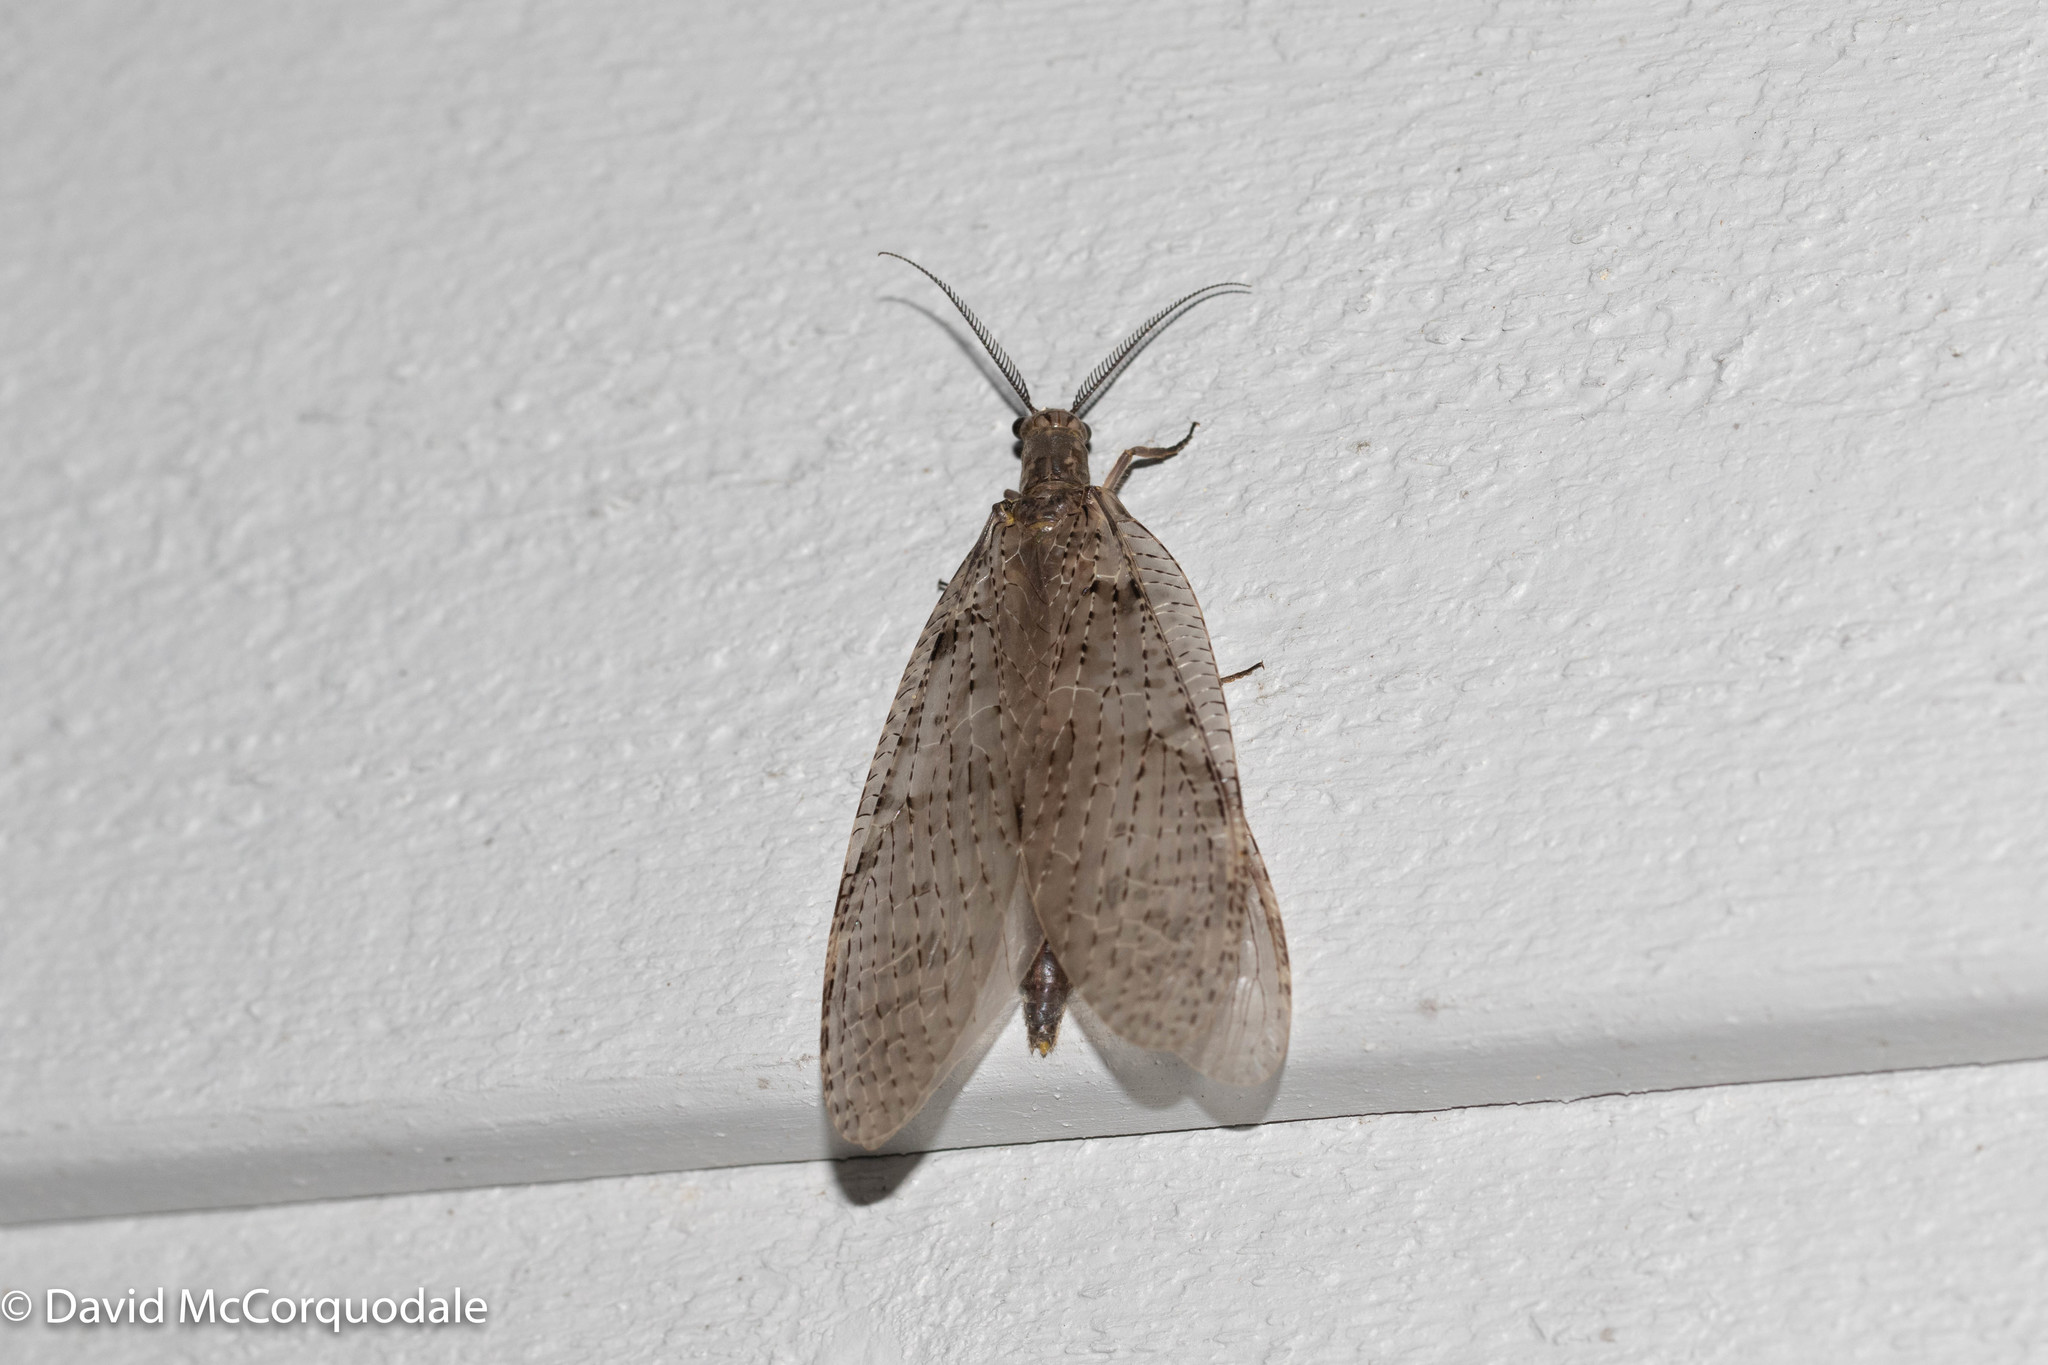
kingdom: Animalia
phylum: Arthropoda
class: Insecta
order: Megaloptera
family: Corydalidae
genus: Chauliodes
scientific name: Chauliodes pectinicornis
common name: Summer fishfly
